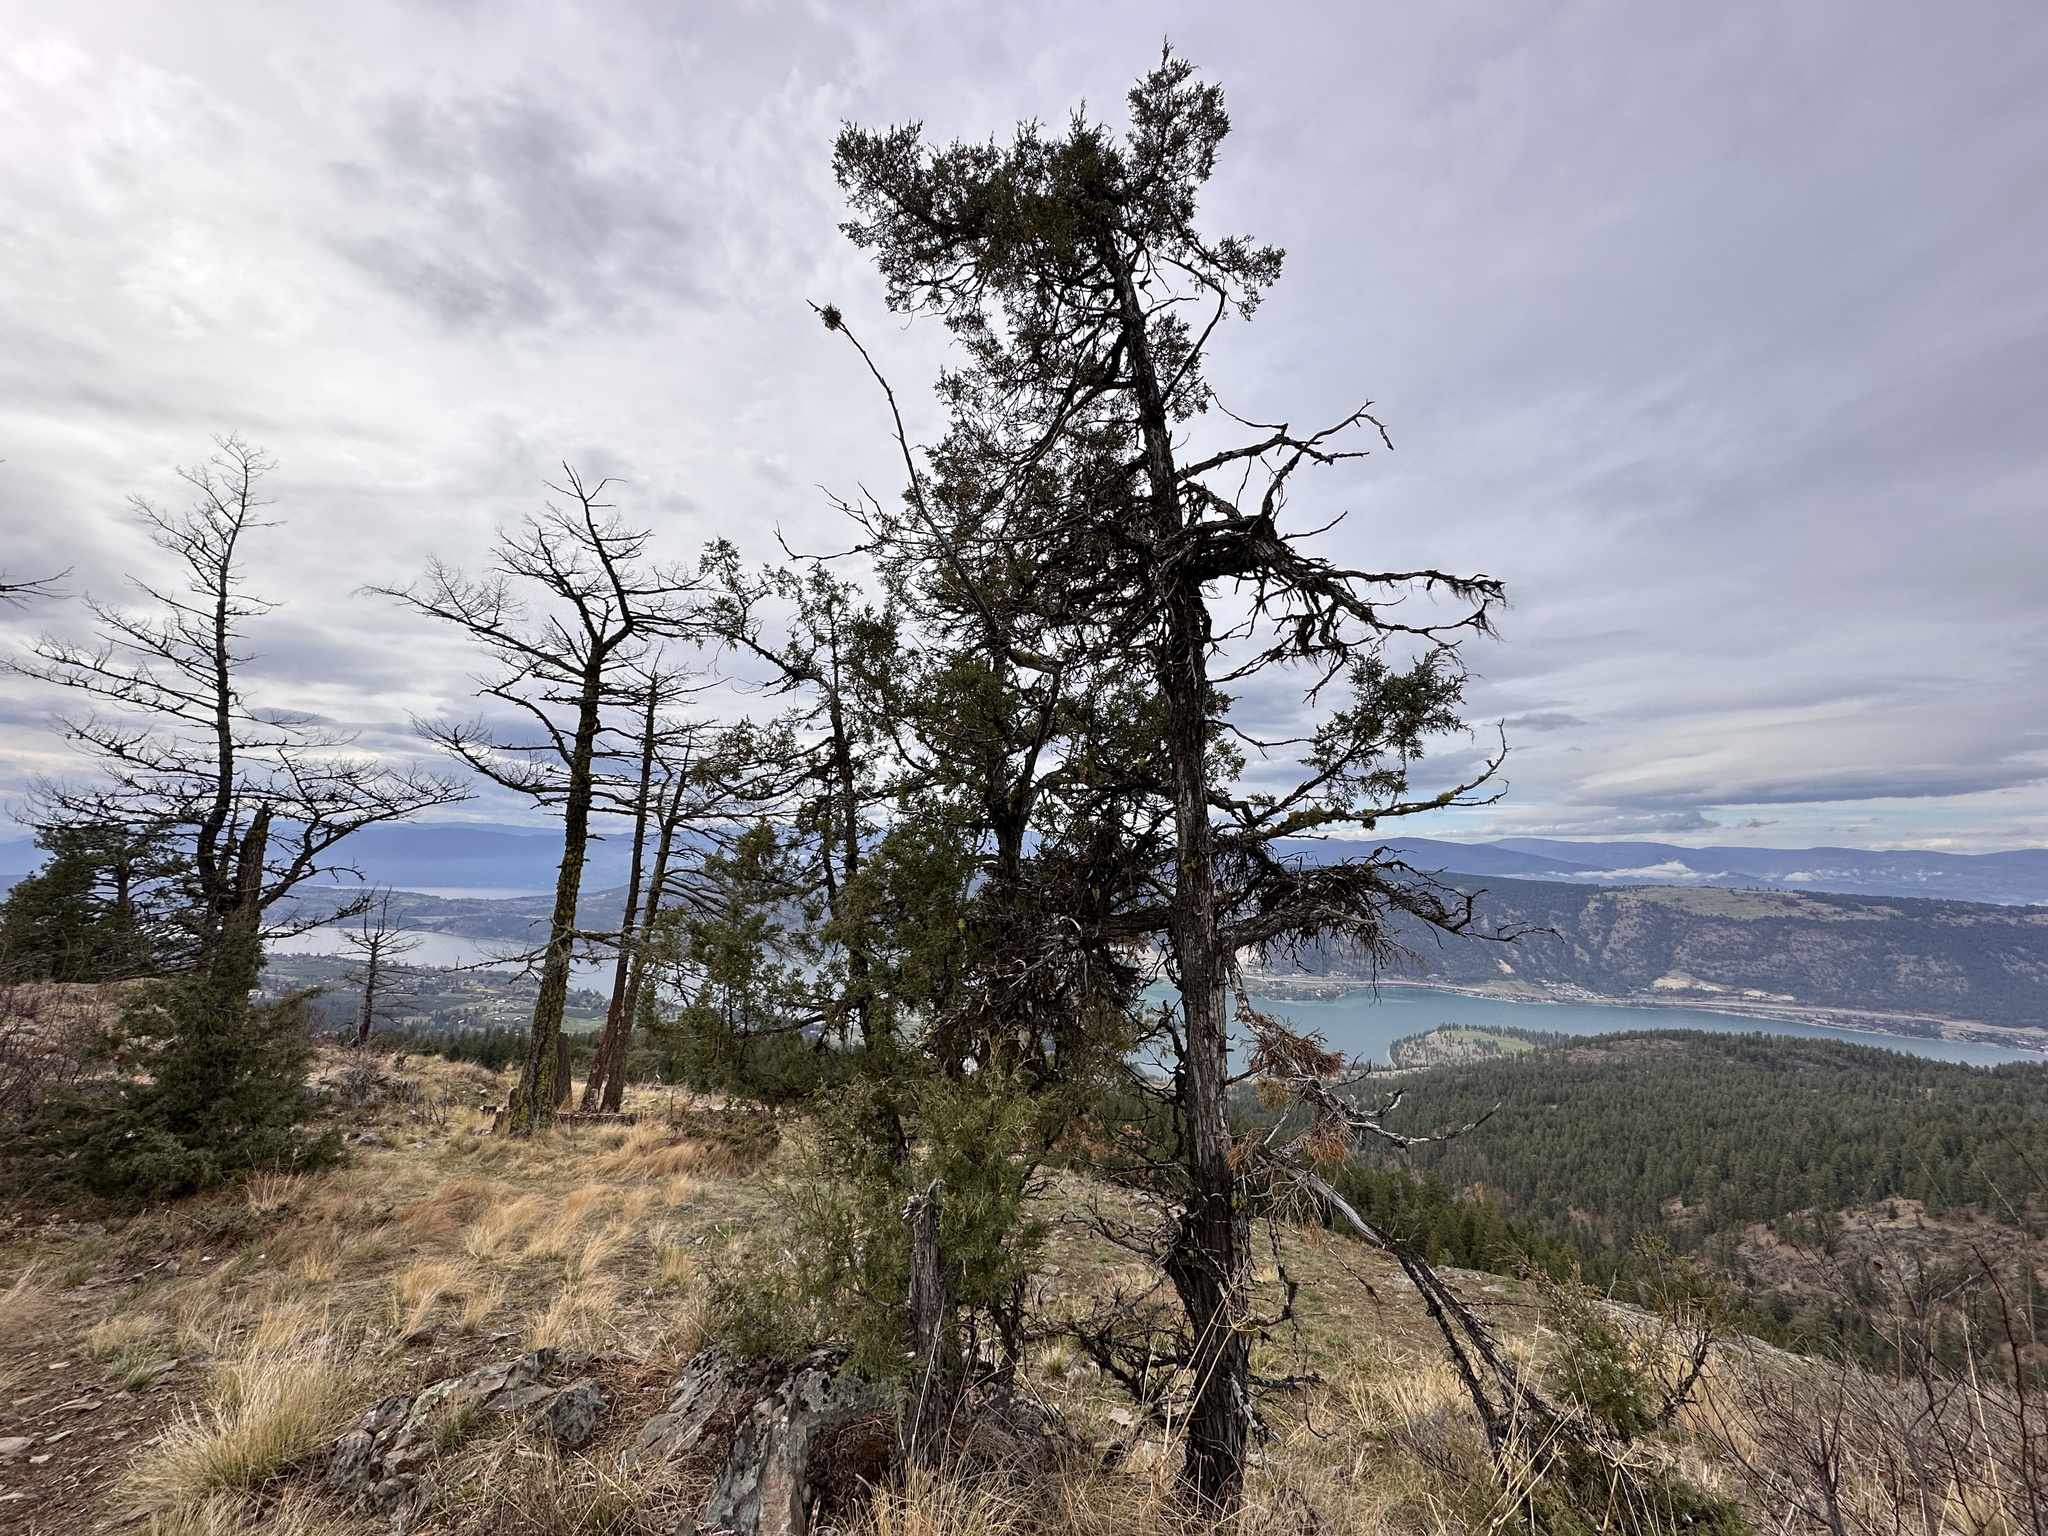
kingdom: Plantae
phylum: Tracheophyta
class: Pinopsida
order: Pinales
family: Cupressaceae
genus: Juniperus
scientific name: Juniperus scopulorum
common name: Rocky mountain juniper
